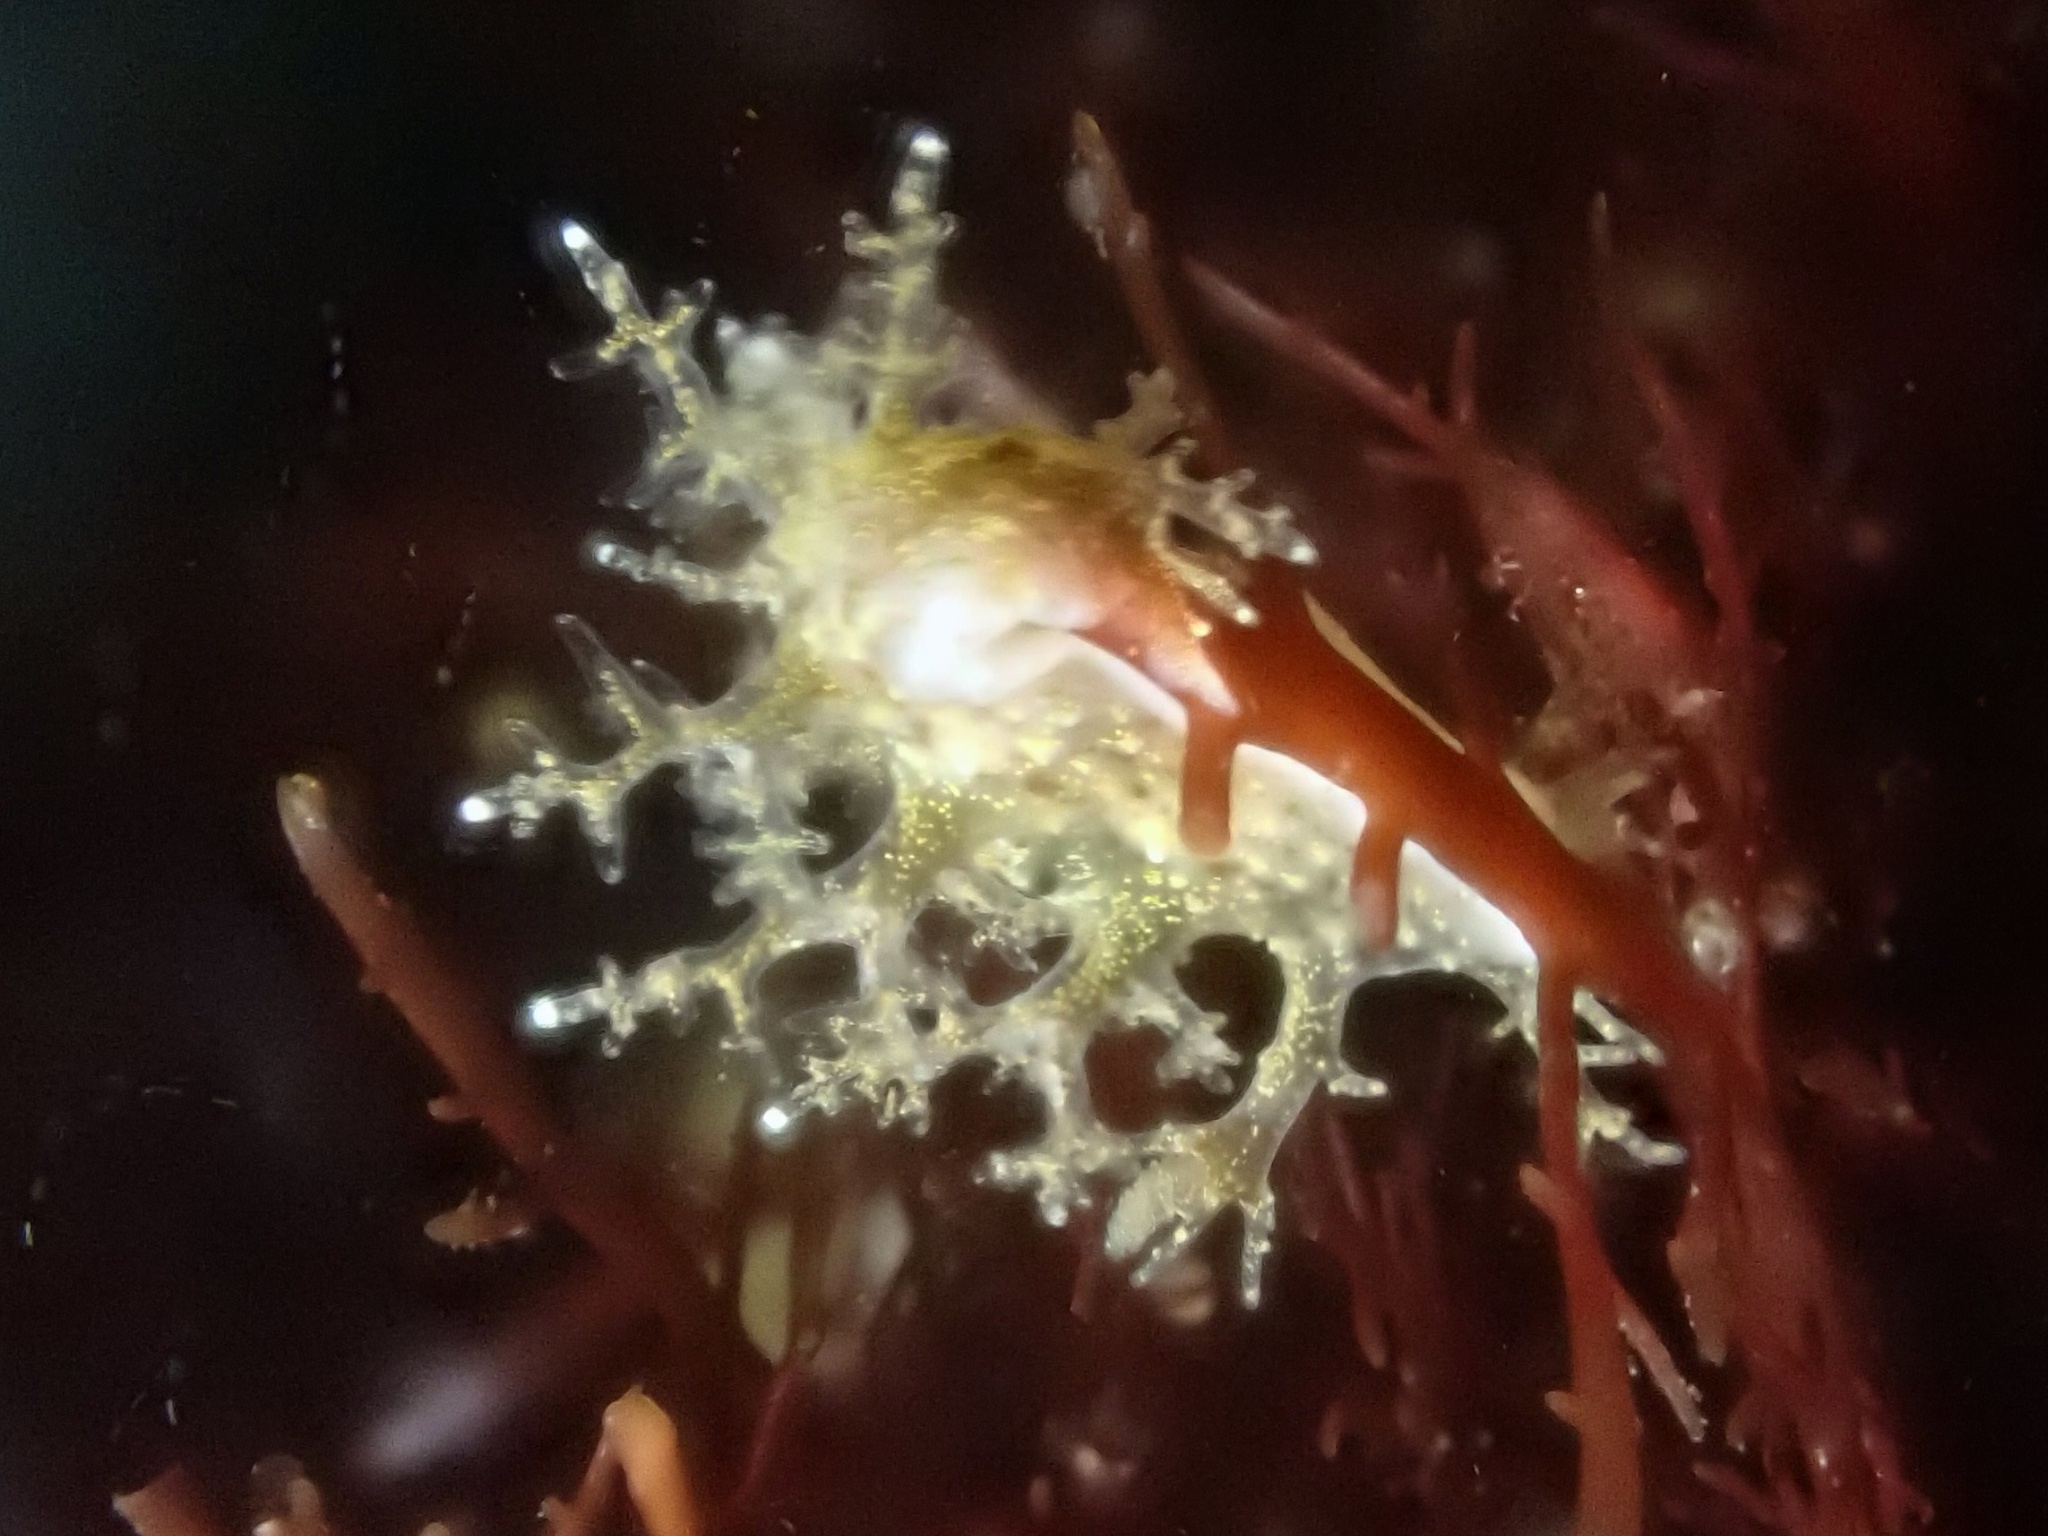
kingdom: Animalia
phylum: Mollusca
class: Gastropoda
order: Nudibranchia
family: Dendronotidae
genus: Dendronotus
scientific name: Dendronotus venustus
